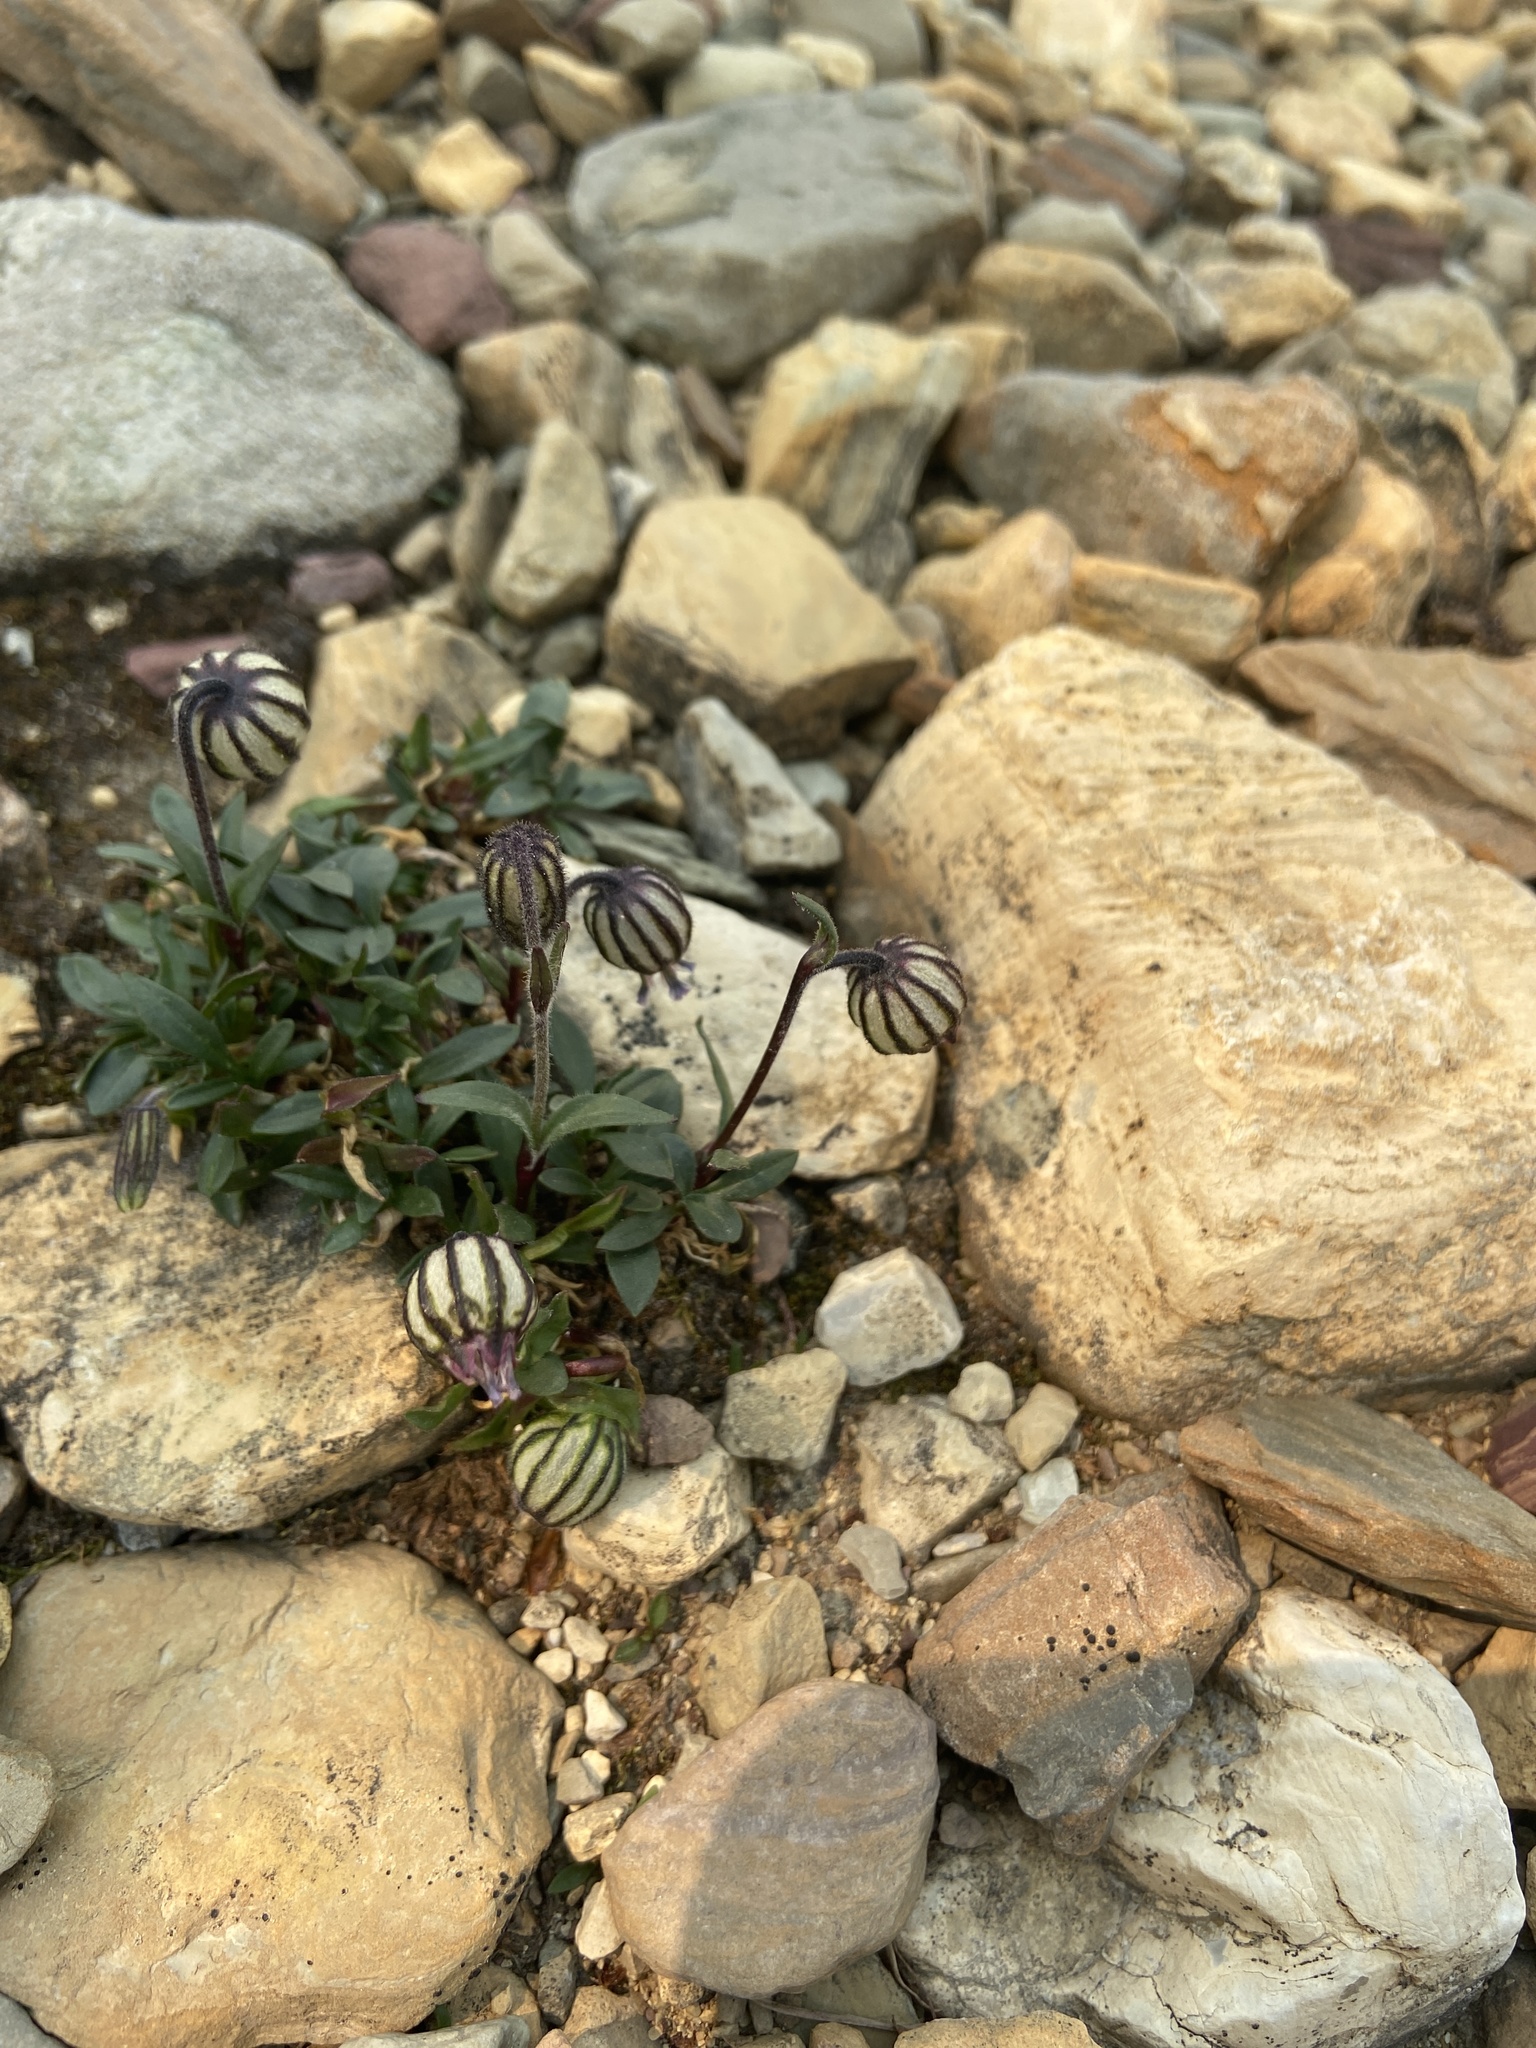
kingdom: Plantae
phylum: Tracheophyta
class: Magnoliopsida
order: Caryophyllales
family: Caryophyllaceae
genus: Silene
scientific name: Silene uralensis
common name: Nodding campion
